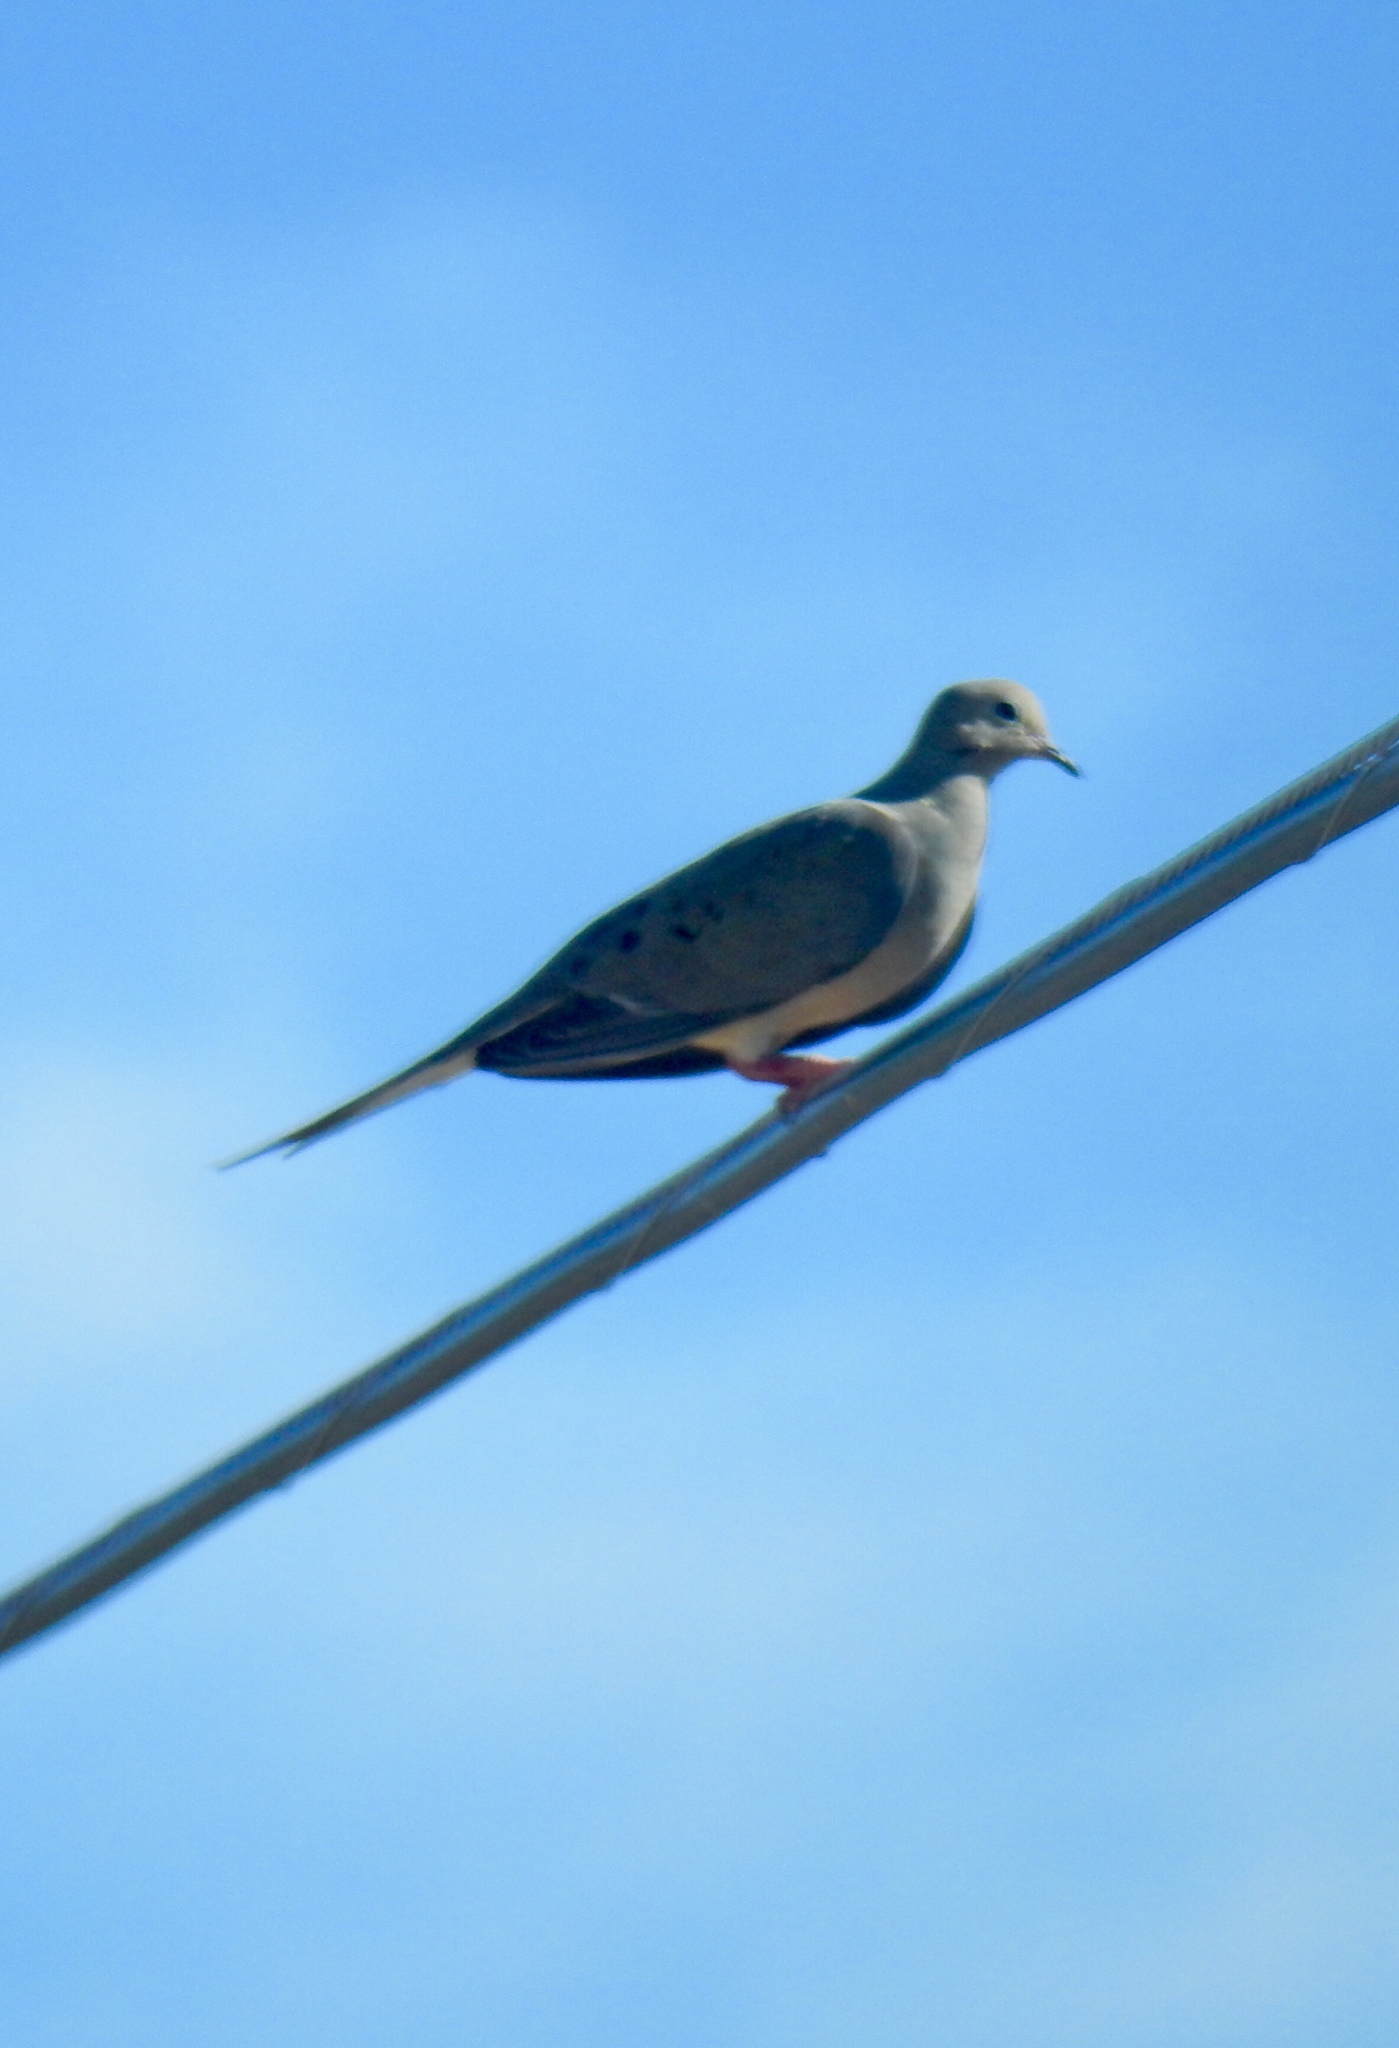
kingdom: Animalia
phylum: Chordata
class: Aves
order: Columbiformes
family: Columbidae
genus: Zenaida
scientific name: Zenaida macroura
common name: Mourning dove
